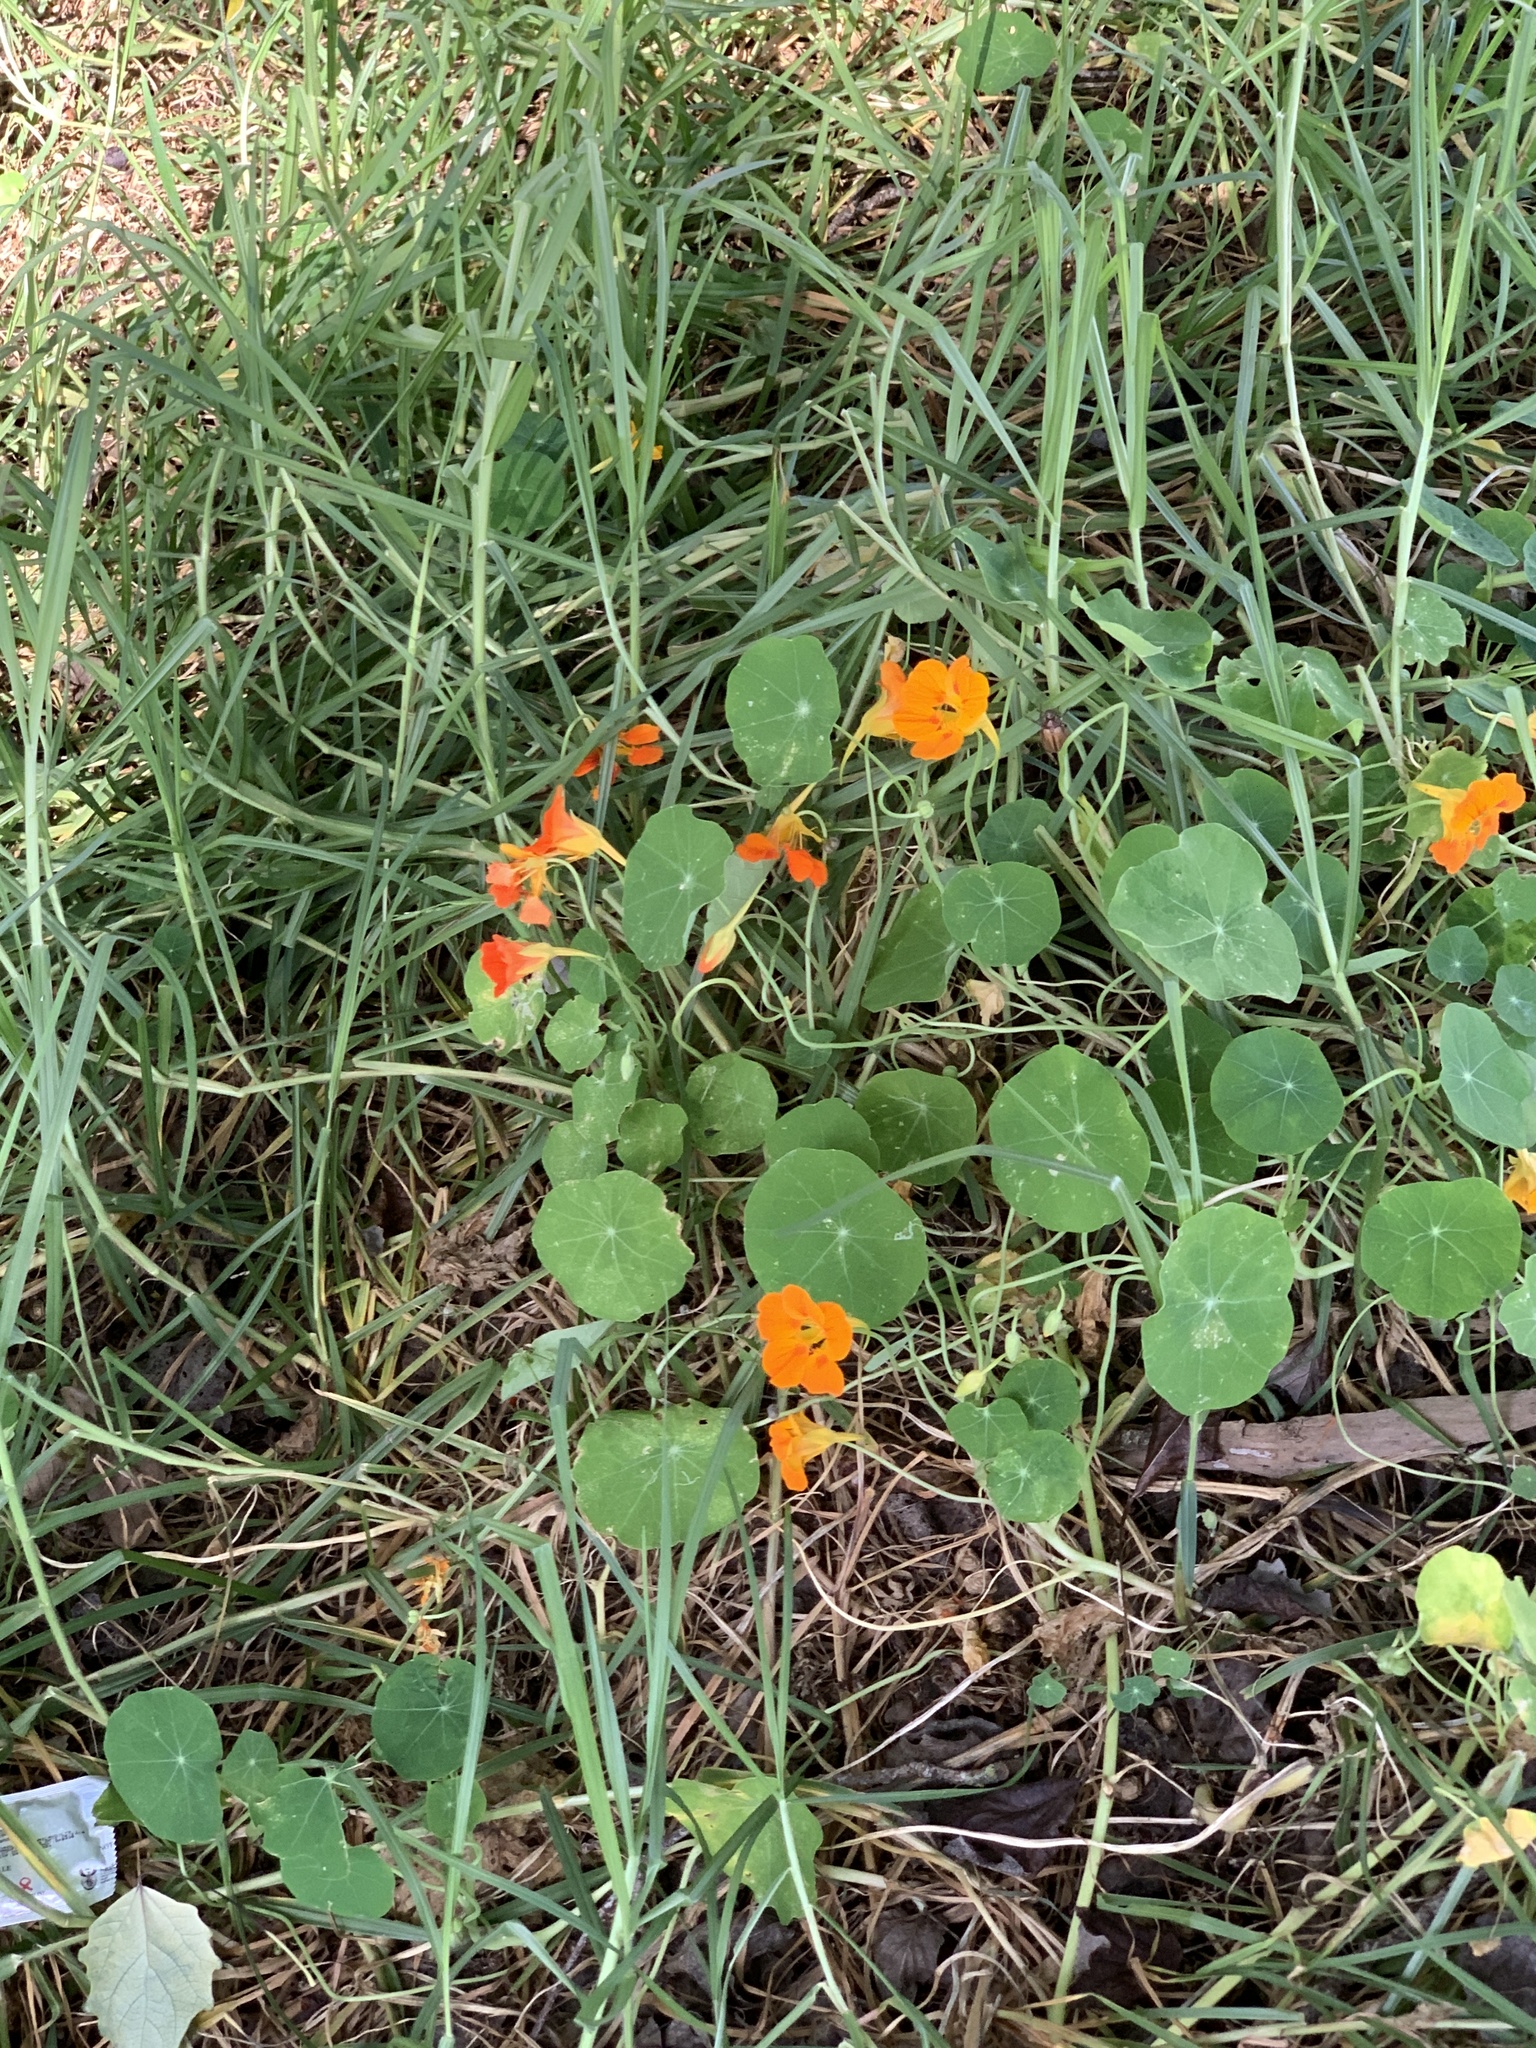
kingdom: Plantae
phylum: Tracheophyta
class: Magnoliopsida
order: Brassicales
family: Tropaeolaceae
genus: Tropaeolum
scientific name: Tropaeolum majus
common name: Nasturtium
